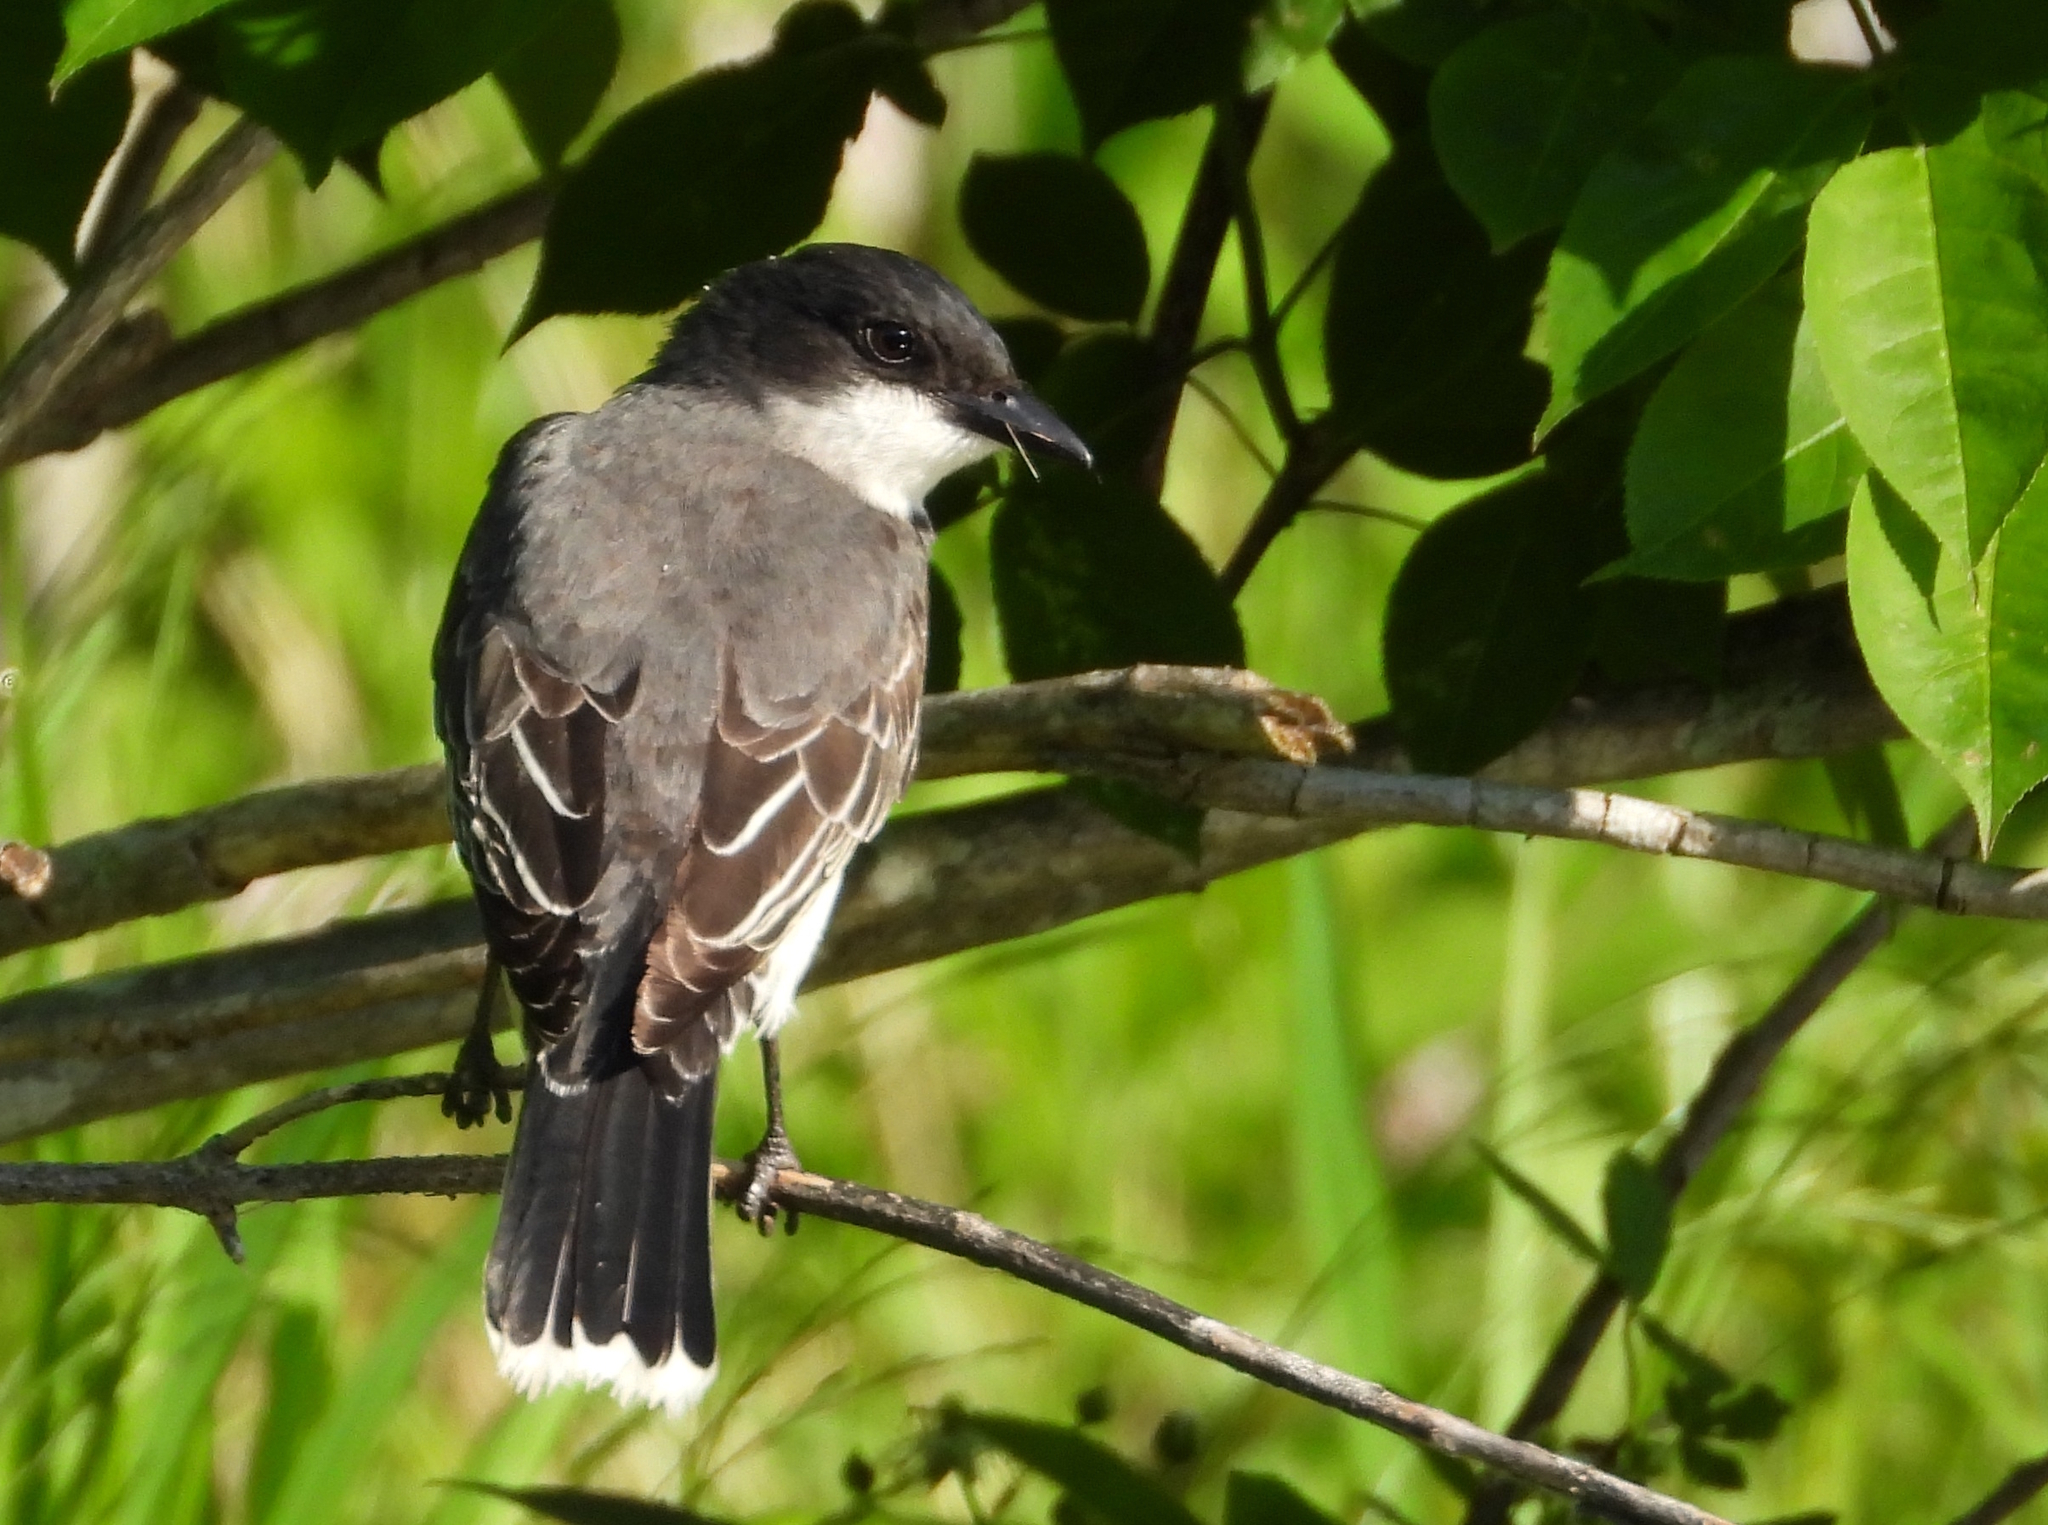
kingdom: Animalia
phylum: Chordata
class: Aves
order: Passeriformes
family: Tyrannidae
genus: Tyrannus
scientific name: Tyrannus tyrannus
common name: Eastern kingbird
